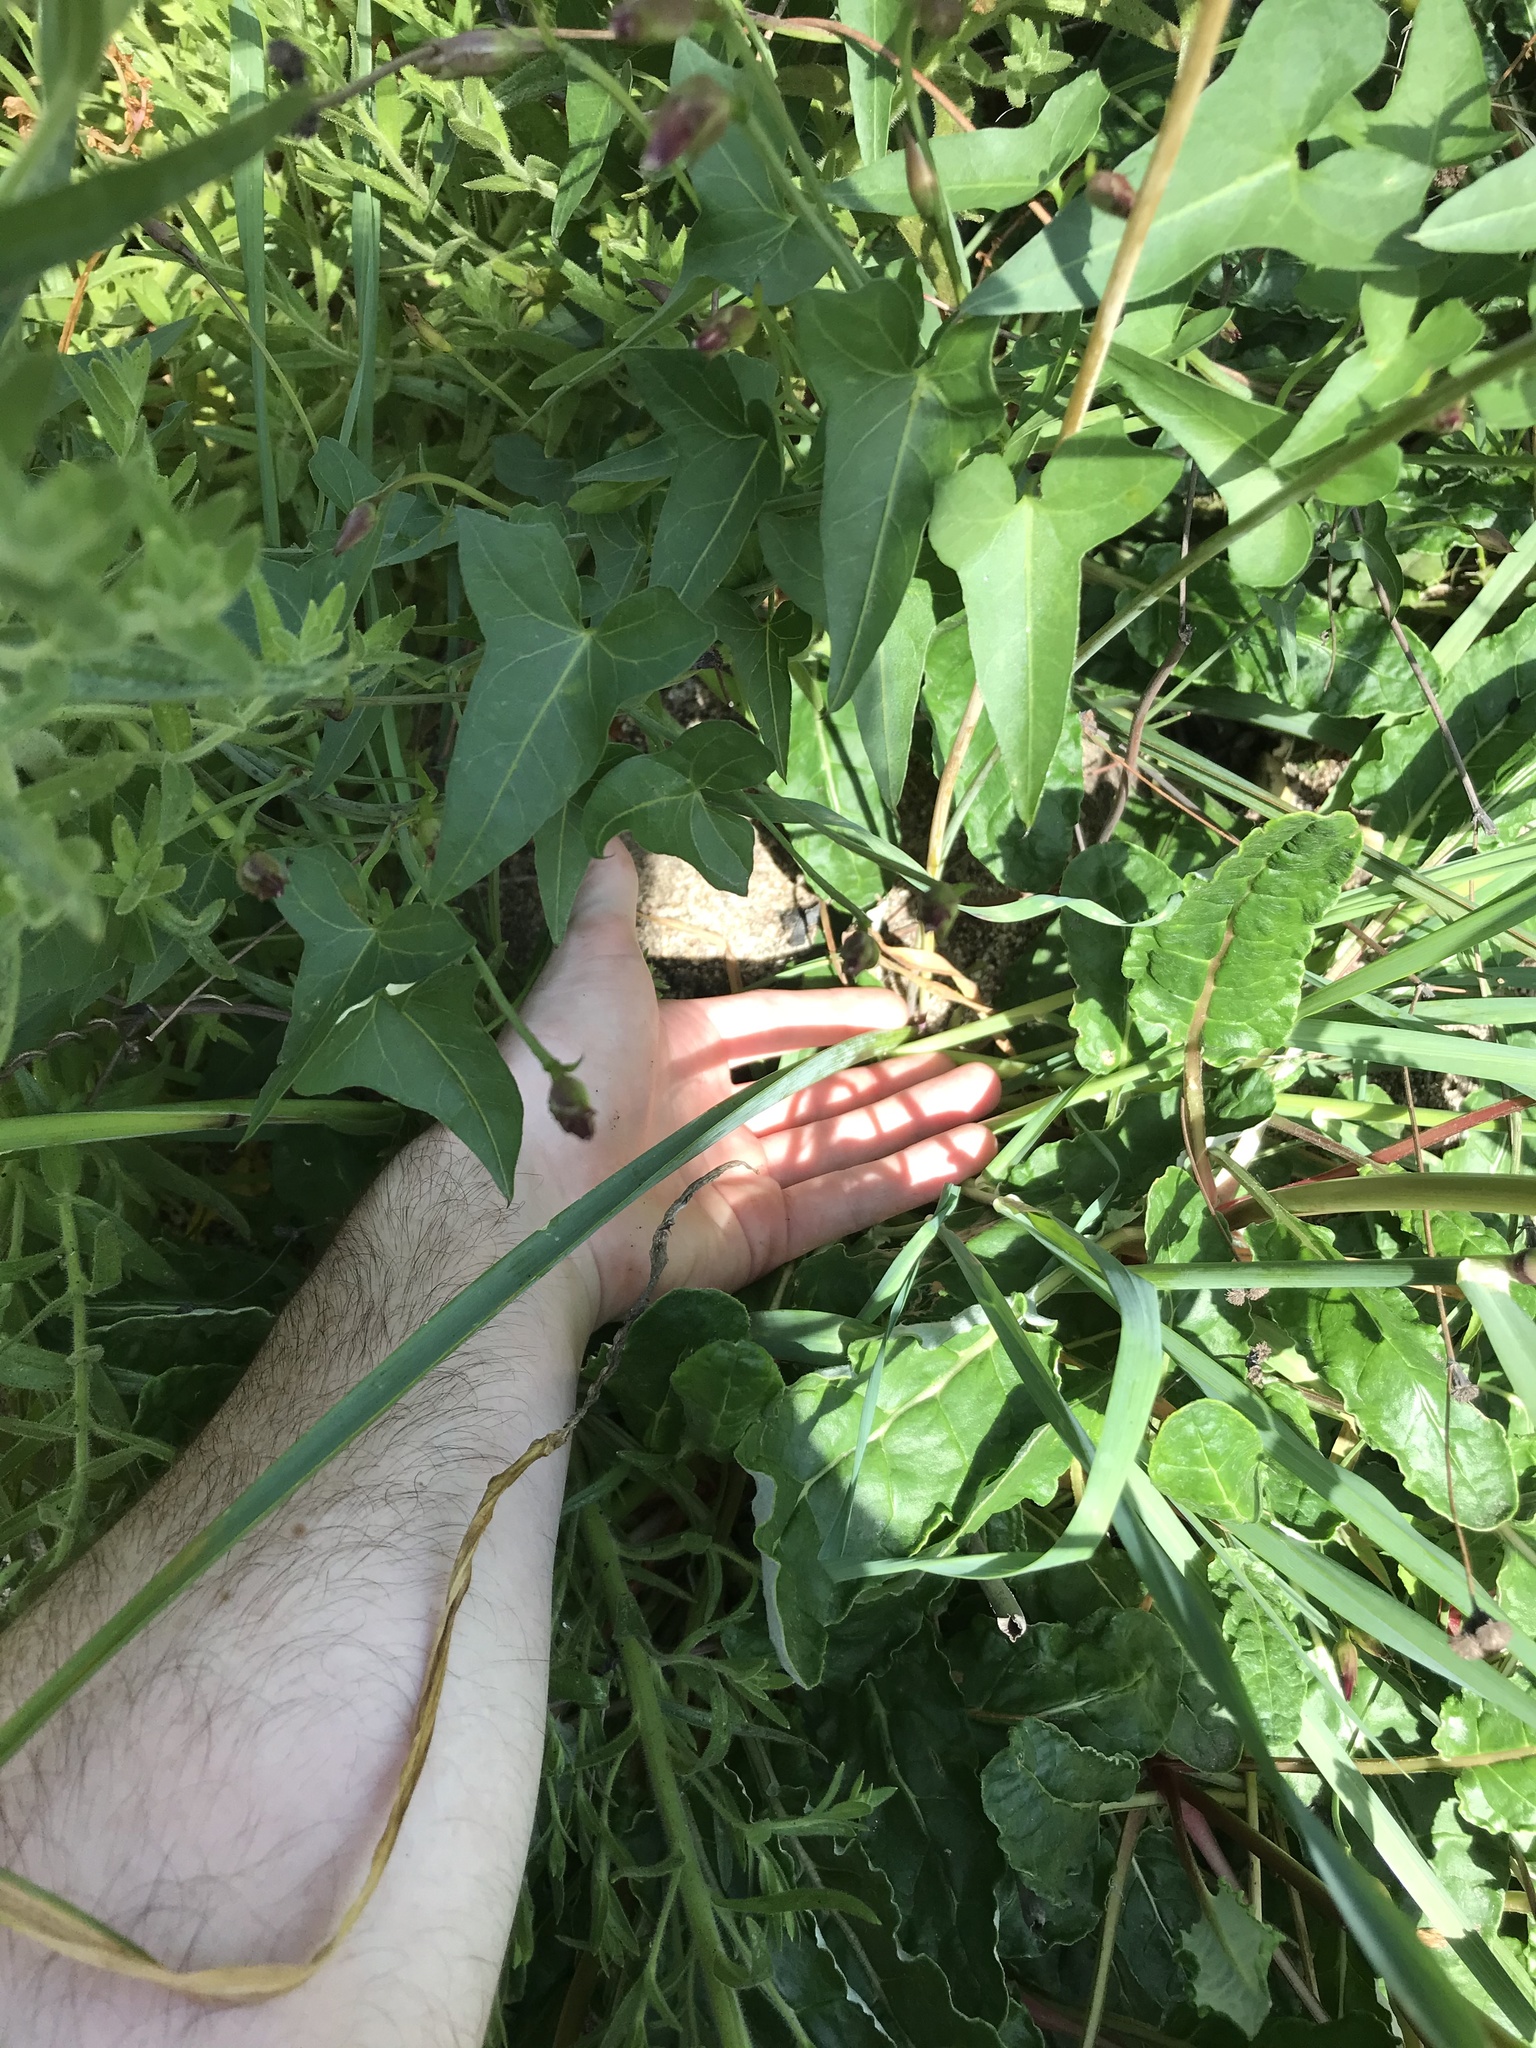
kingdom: Plantae
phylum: Tracheophyta
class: Liliopsida
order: Asparagales
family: Asparagaceae
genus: Dipterostemon
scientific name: Dipterostemon capitatus
